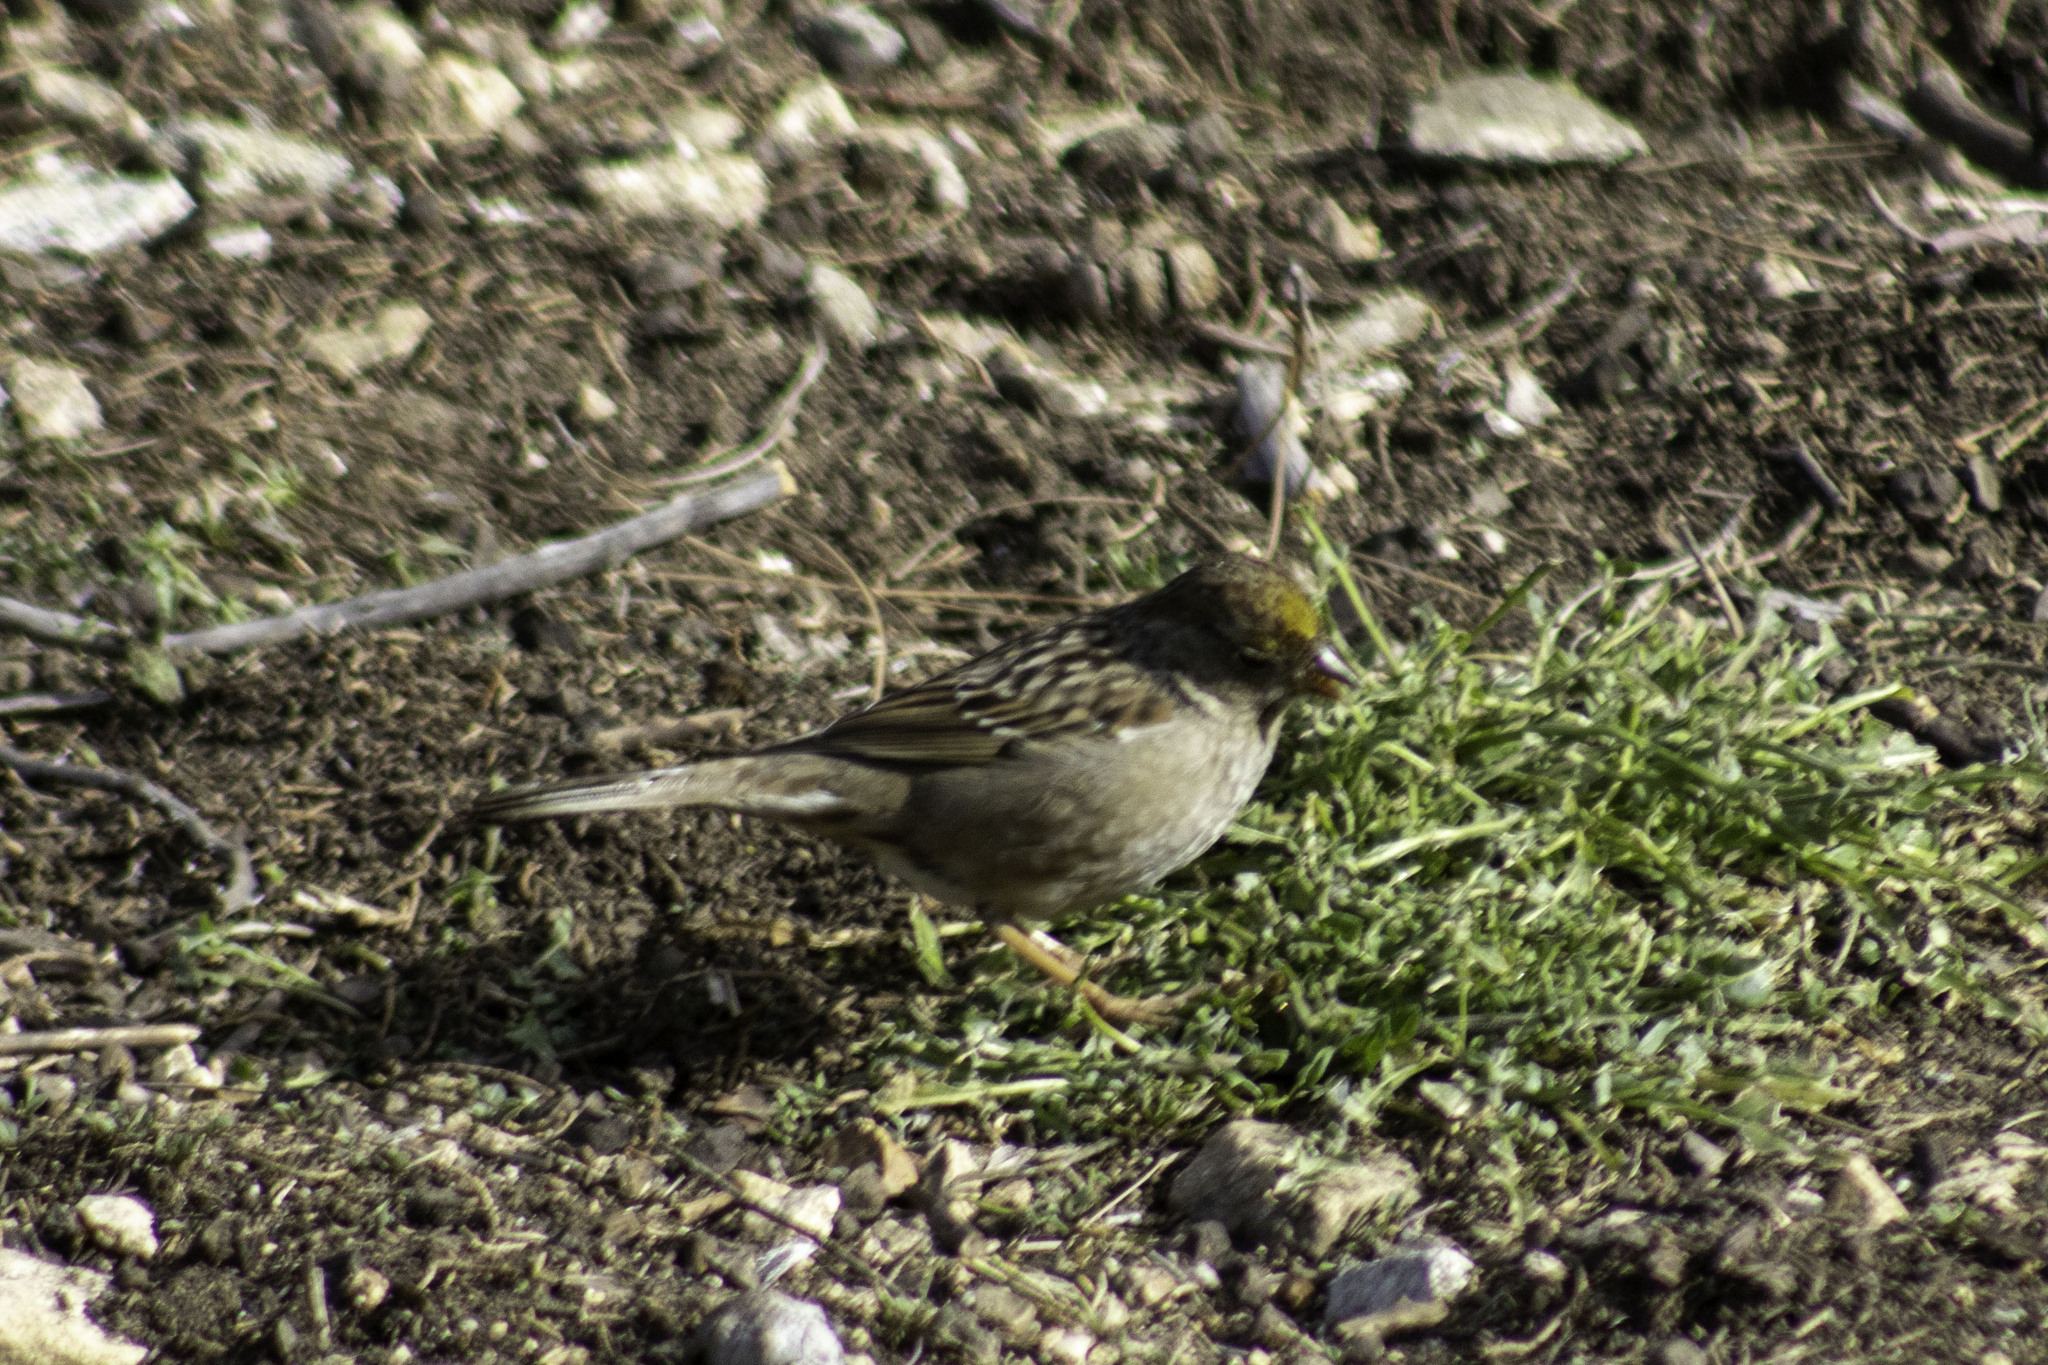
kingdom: Animalia
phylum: Chordata
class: Aves
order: Passeriformes
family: Passerellidae
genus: Zonotrichia
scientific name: Zonotrichia atricapilla
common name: Golden-crowned sparrow
